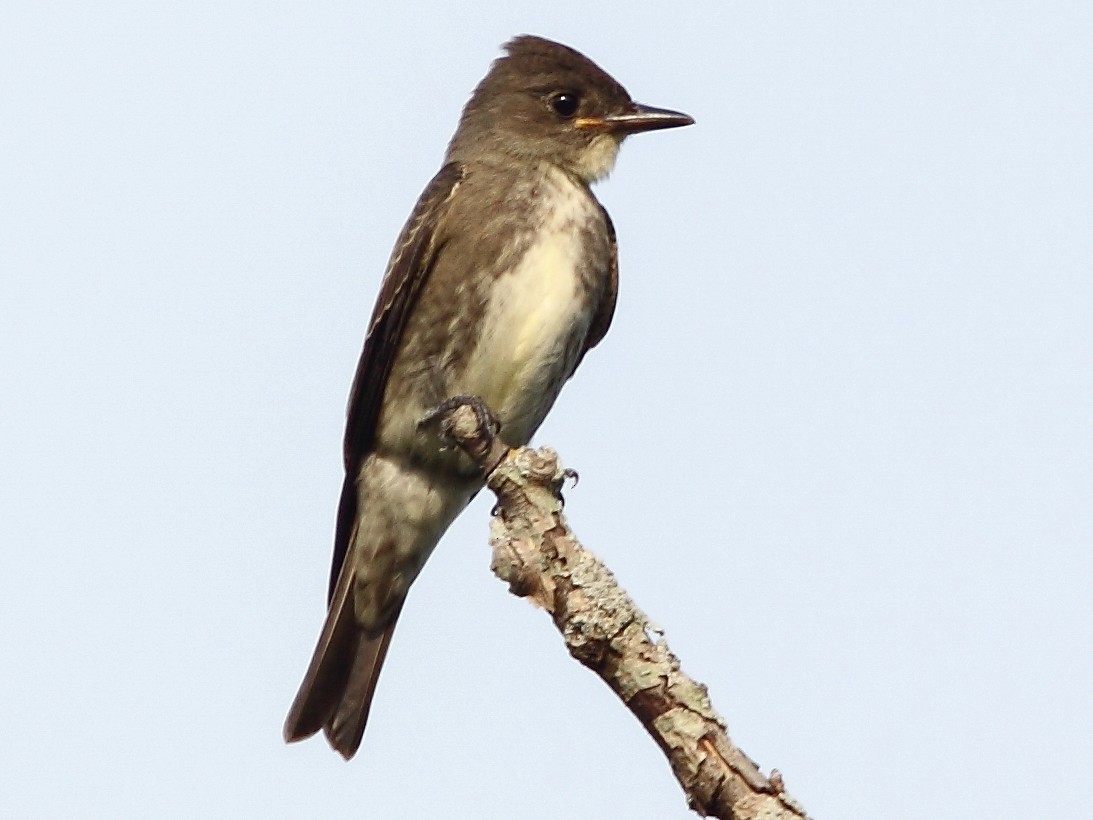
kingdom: Animalia
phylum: Chordata
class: Aves
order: Passeriformes
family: Tyrannidae
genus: Contopus
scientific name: Contopus cooperi
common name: Olive-sided flycatcher
